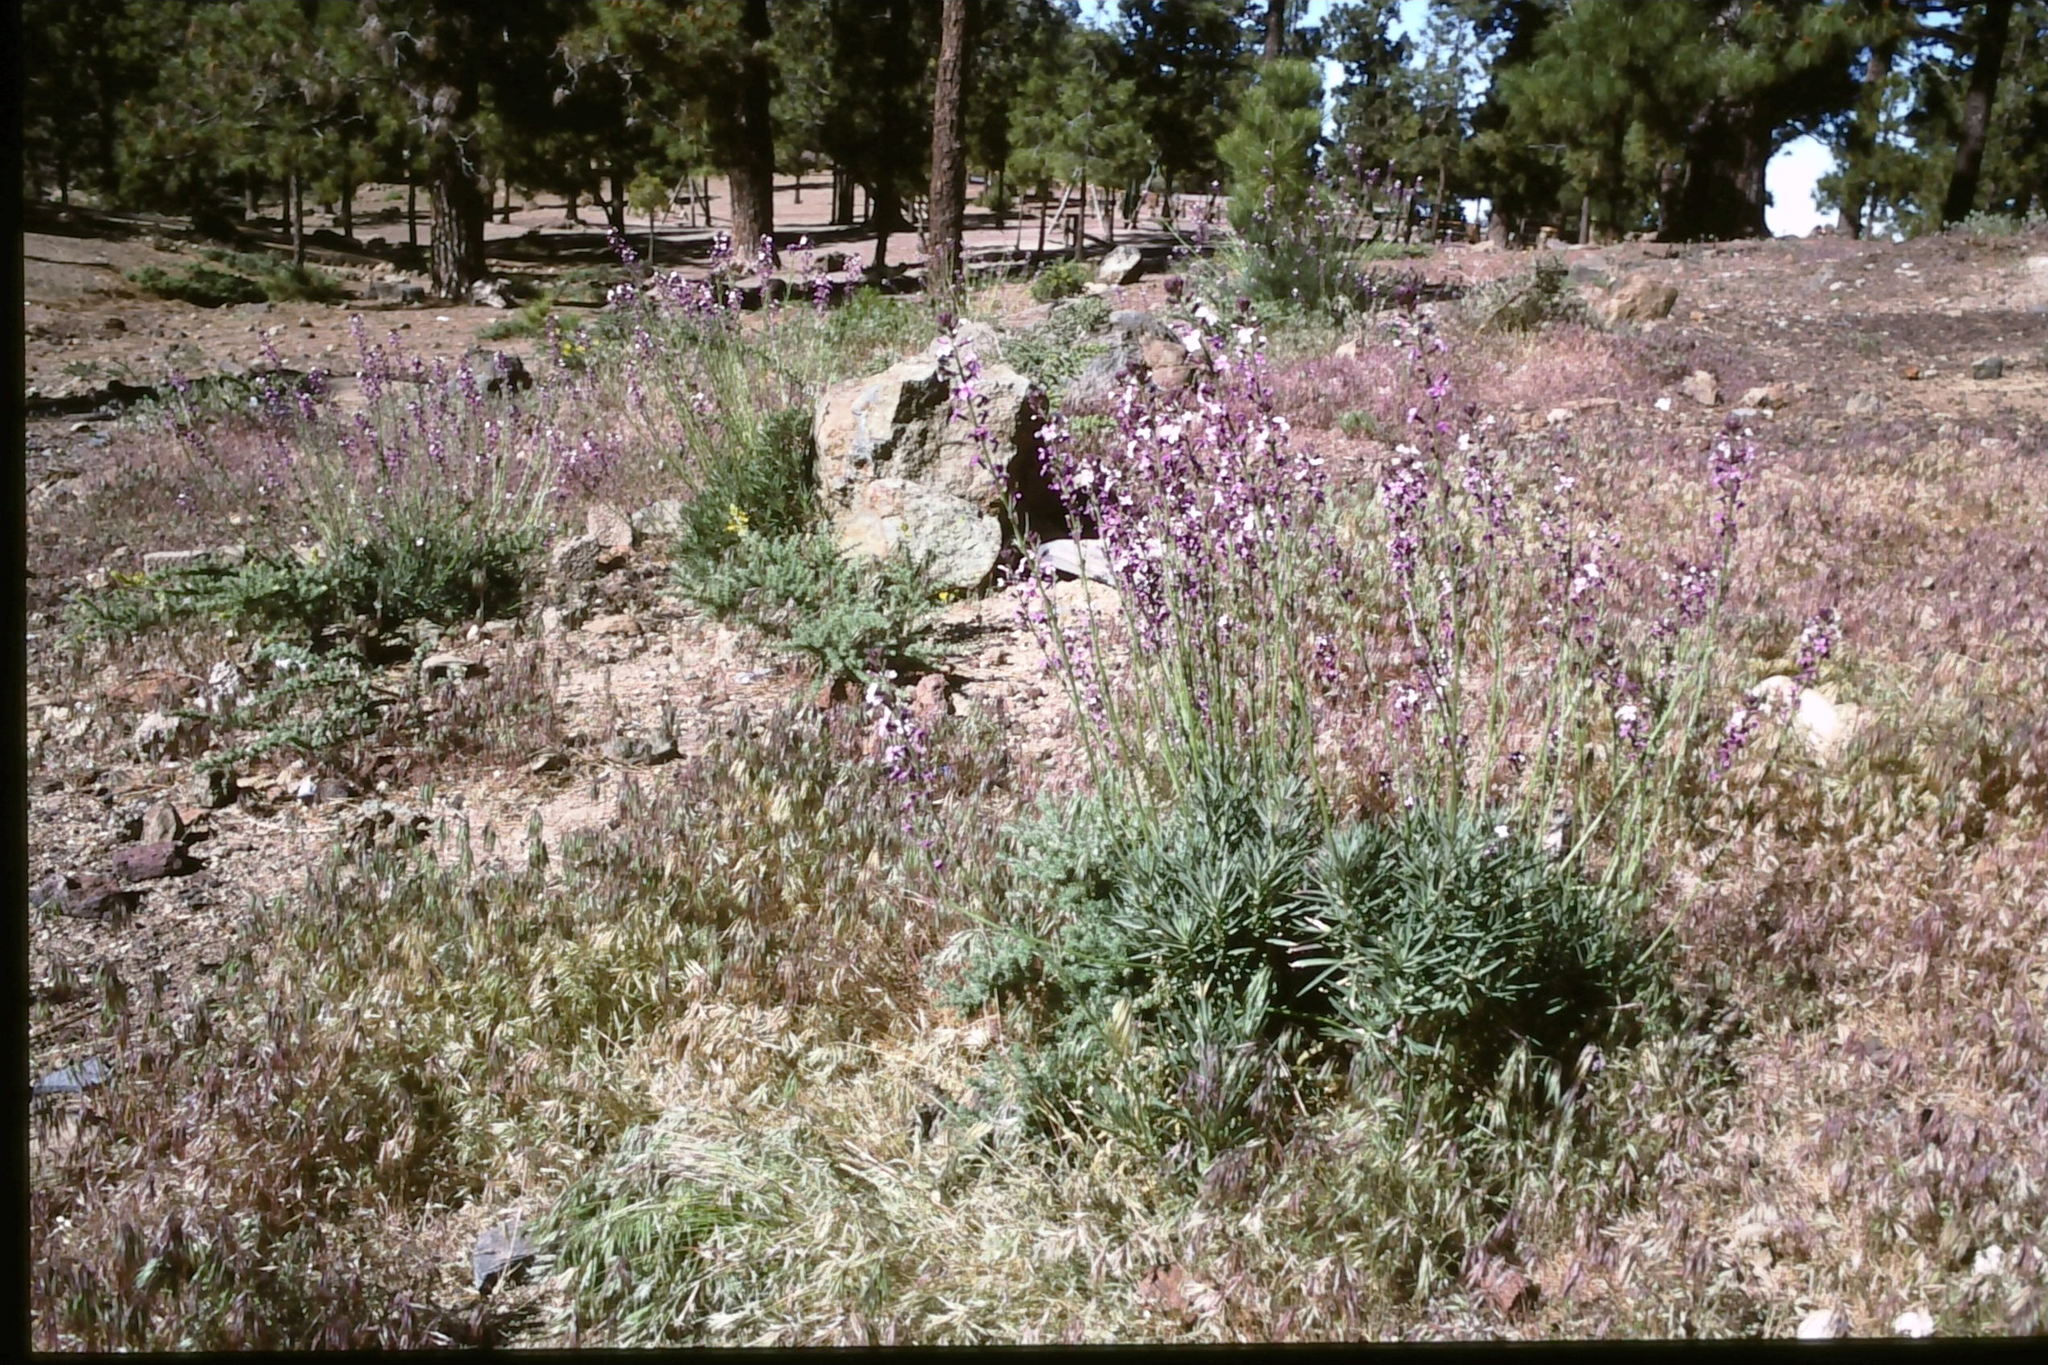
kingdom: Plantae
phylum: Tracheophyta
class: Magnoliopsida
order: Brassicales
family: Brassicaceae
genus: Erysimum
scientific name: Erysimum scoparium
